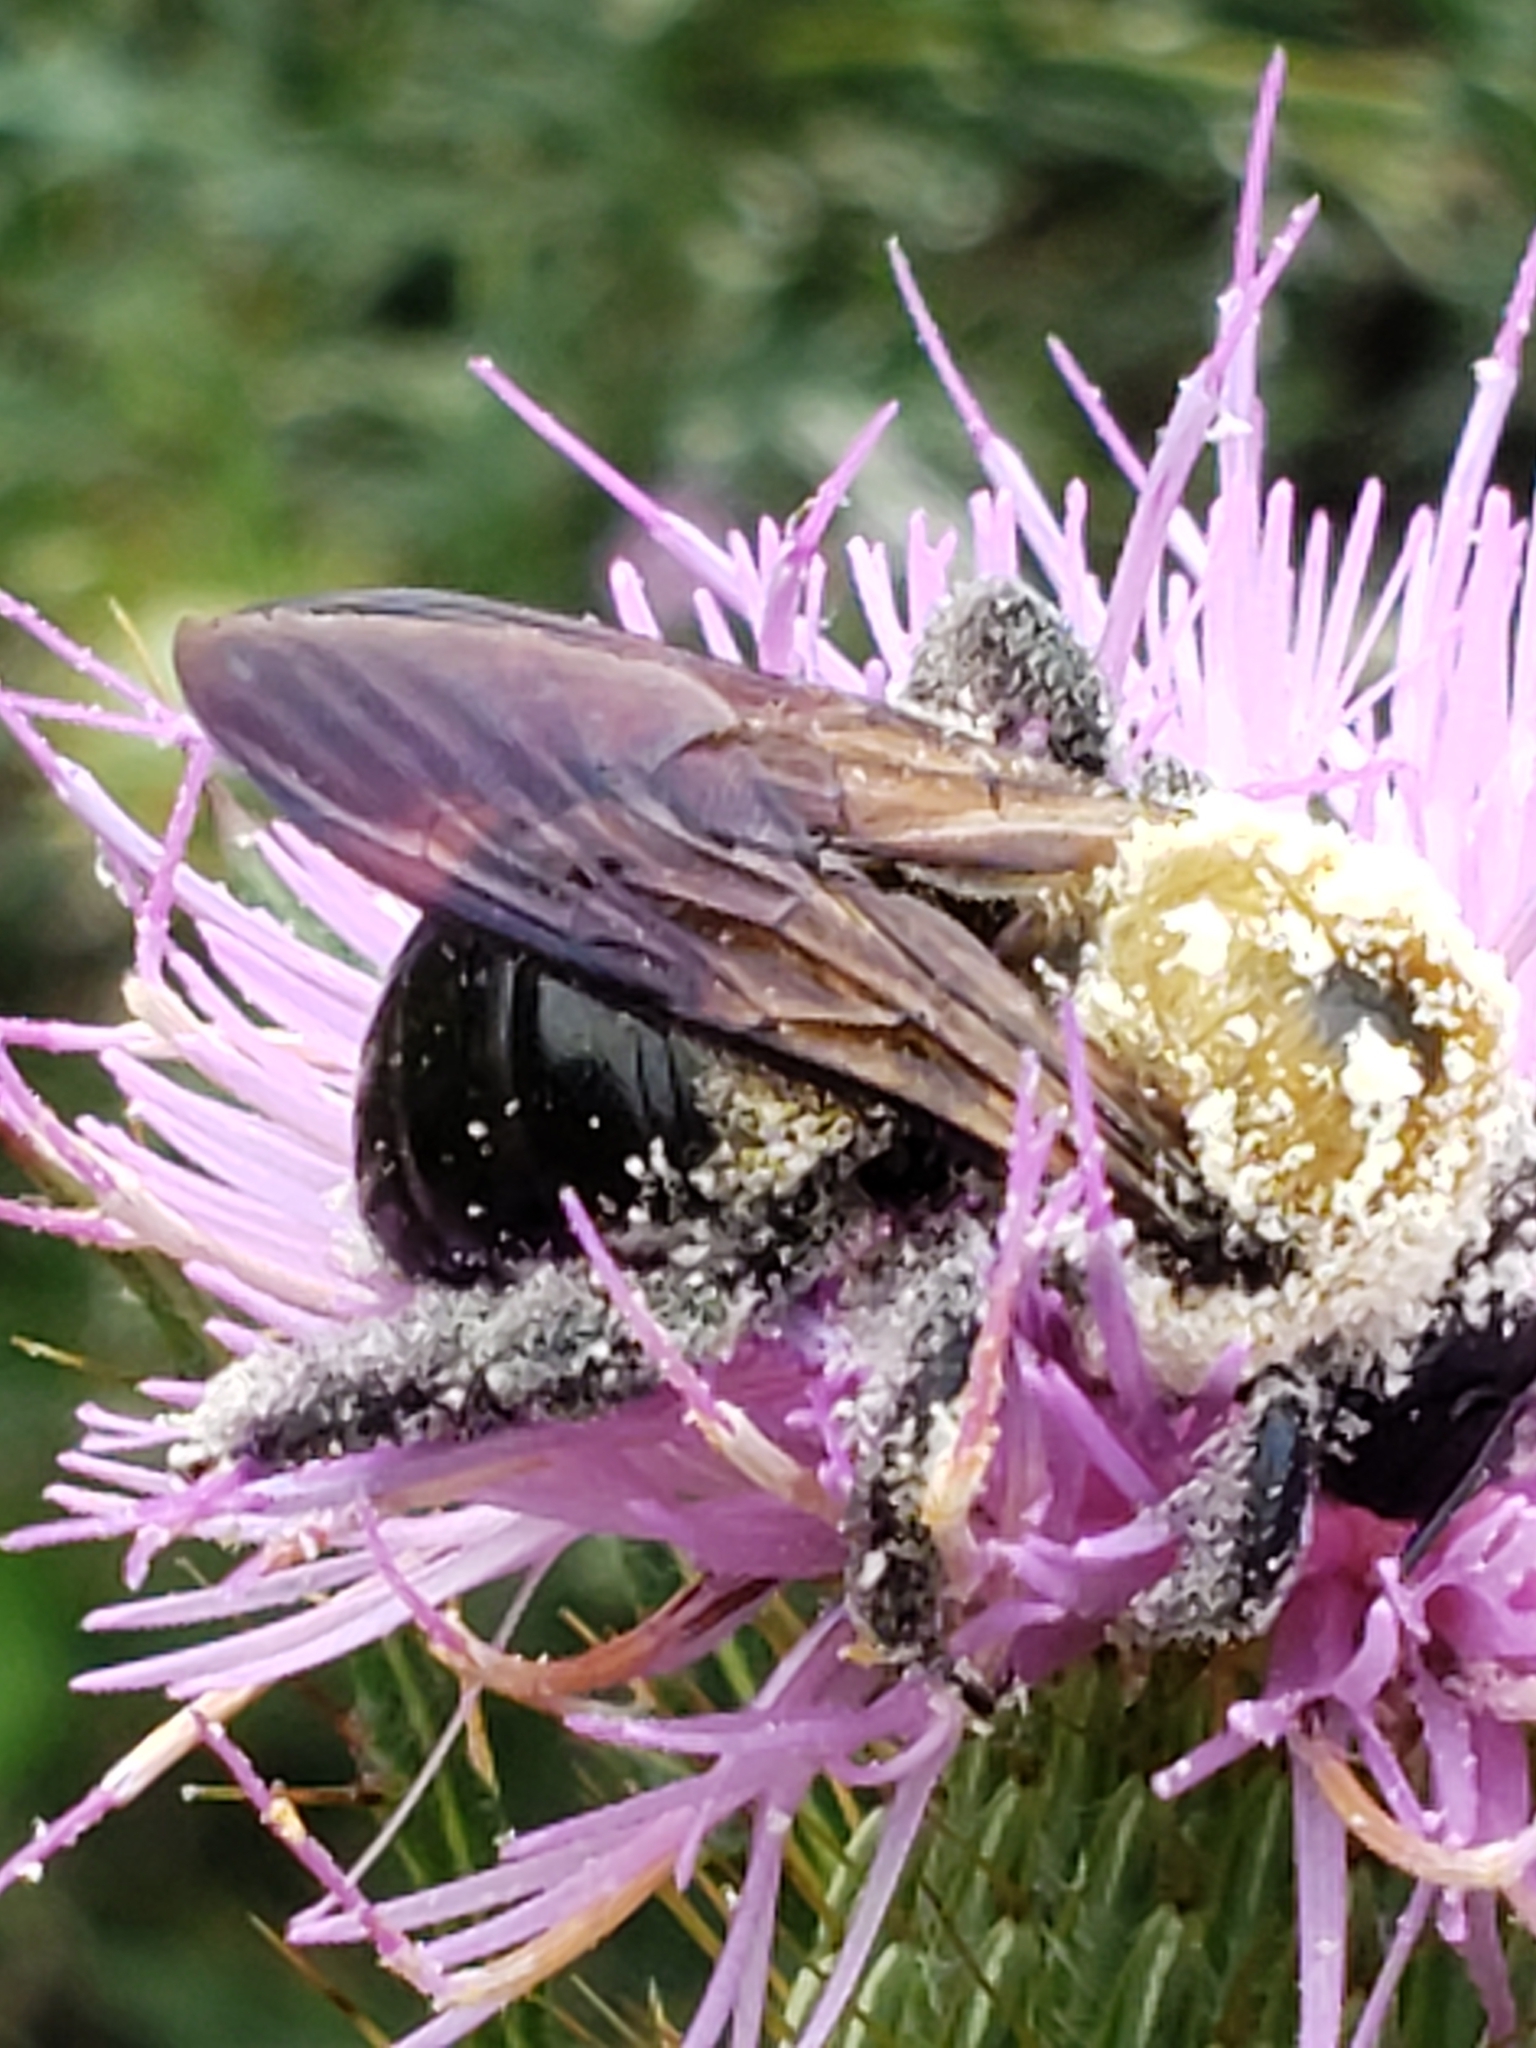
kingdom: Animalia
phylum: Arthropoda
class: Insecta
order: Hymenoptera
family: Apidae
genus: Xylocopa
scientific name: Xylocopa virginica
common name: Carpenter bee
